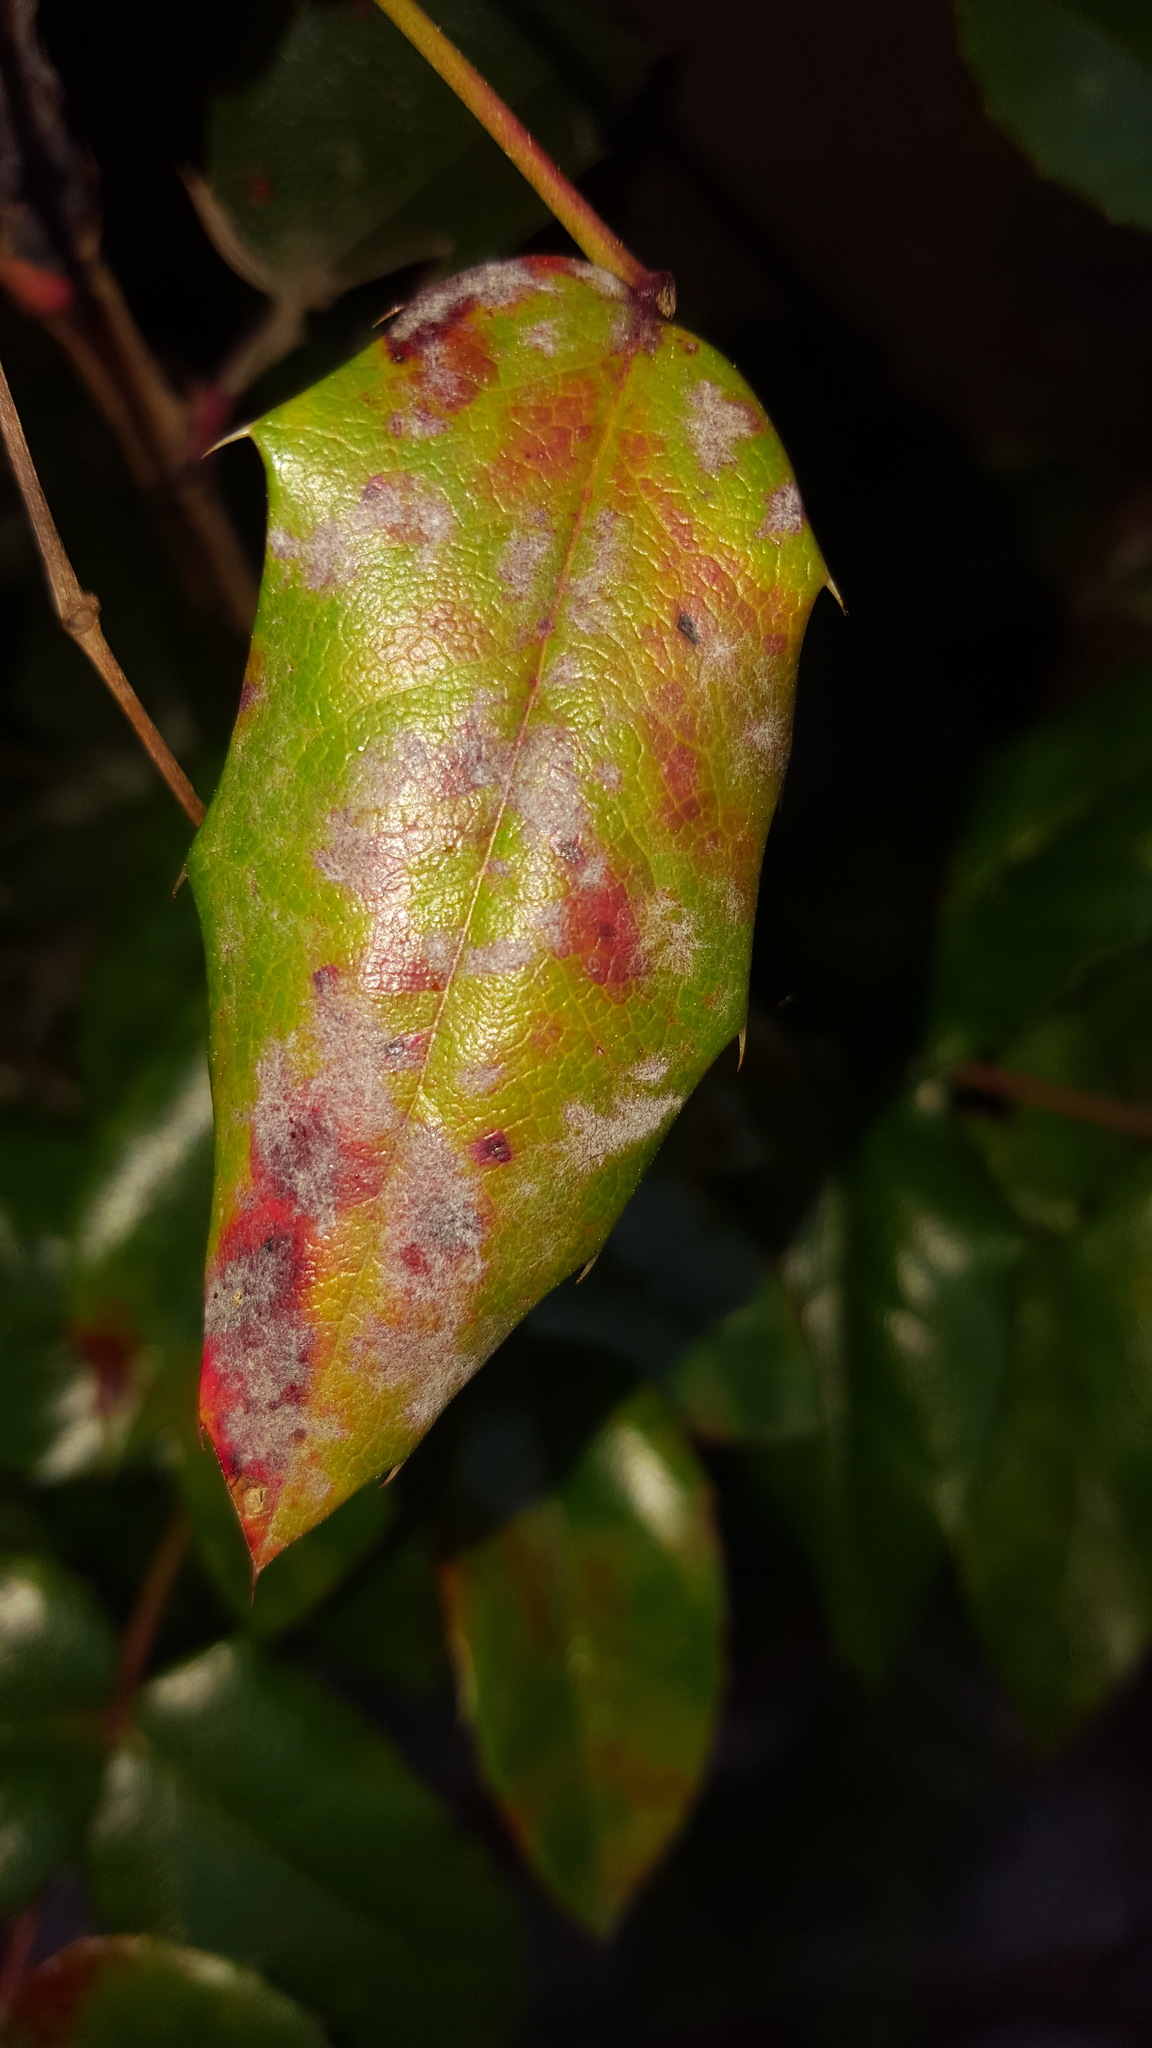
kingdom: Fungi
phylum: Ascomycota
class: Leotiomycetes
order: Helotiales
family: Erysiphaceae
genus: Erysiphe
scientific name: Erysiphe berberidis
